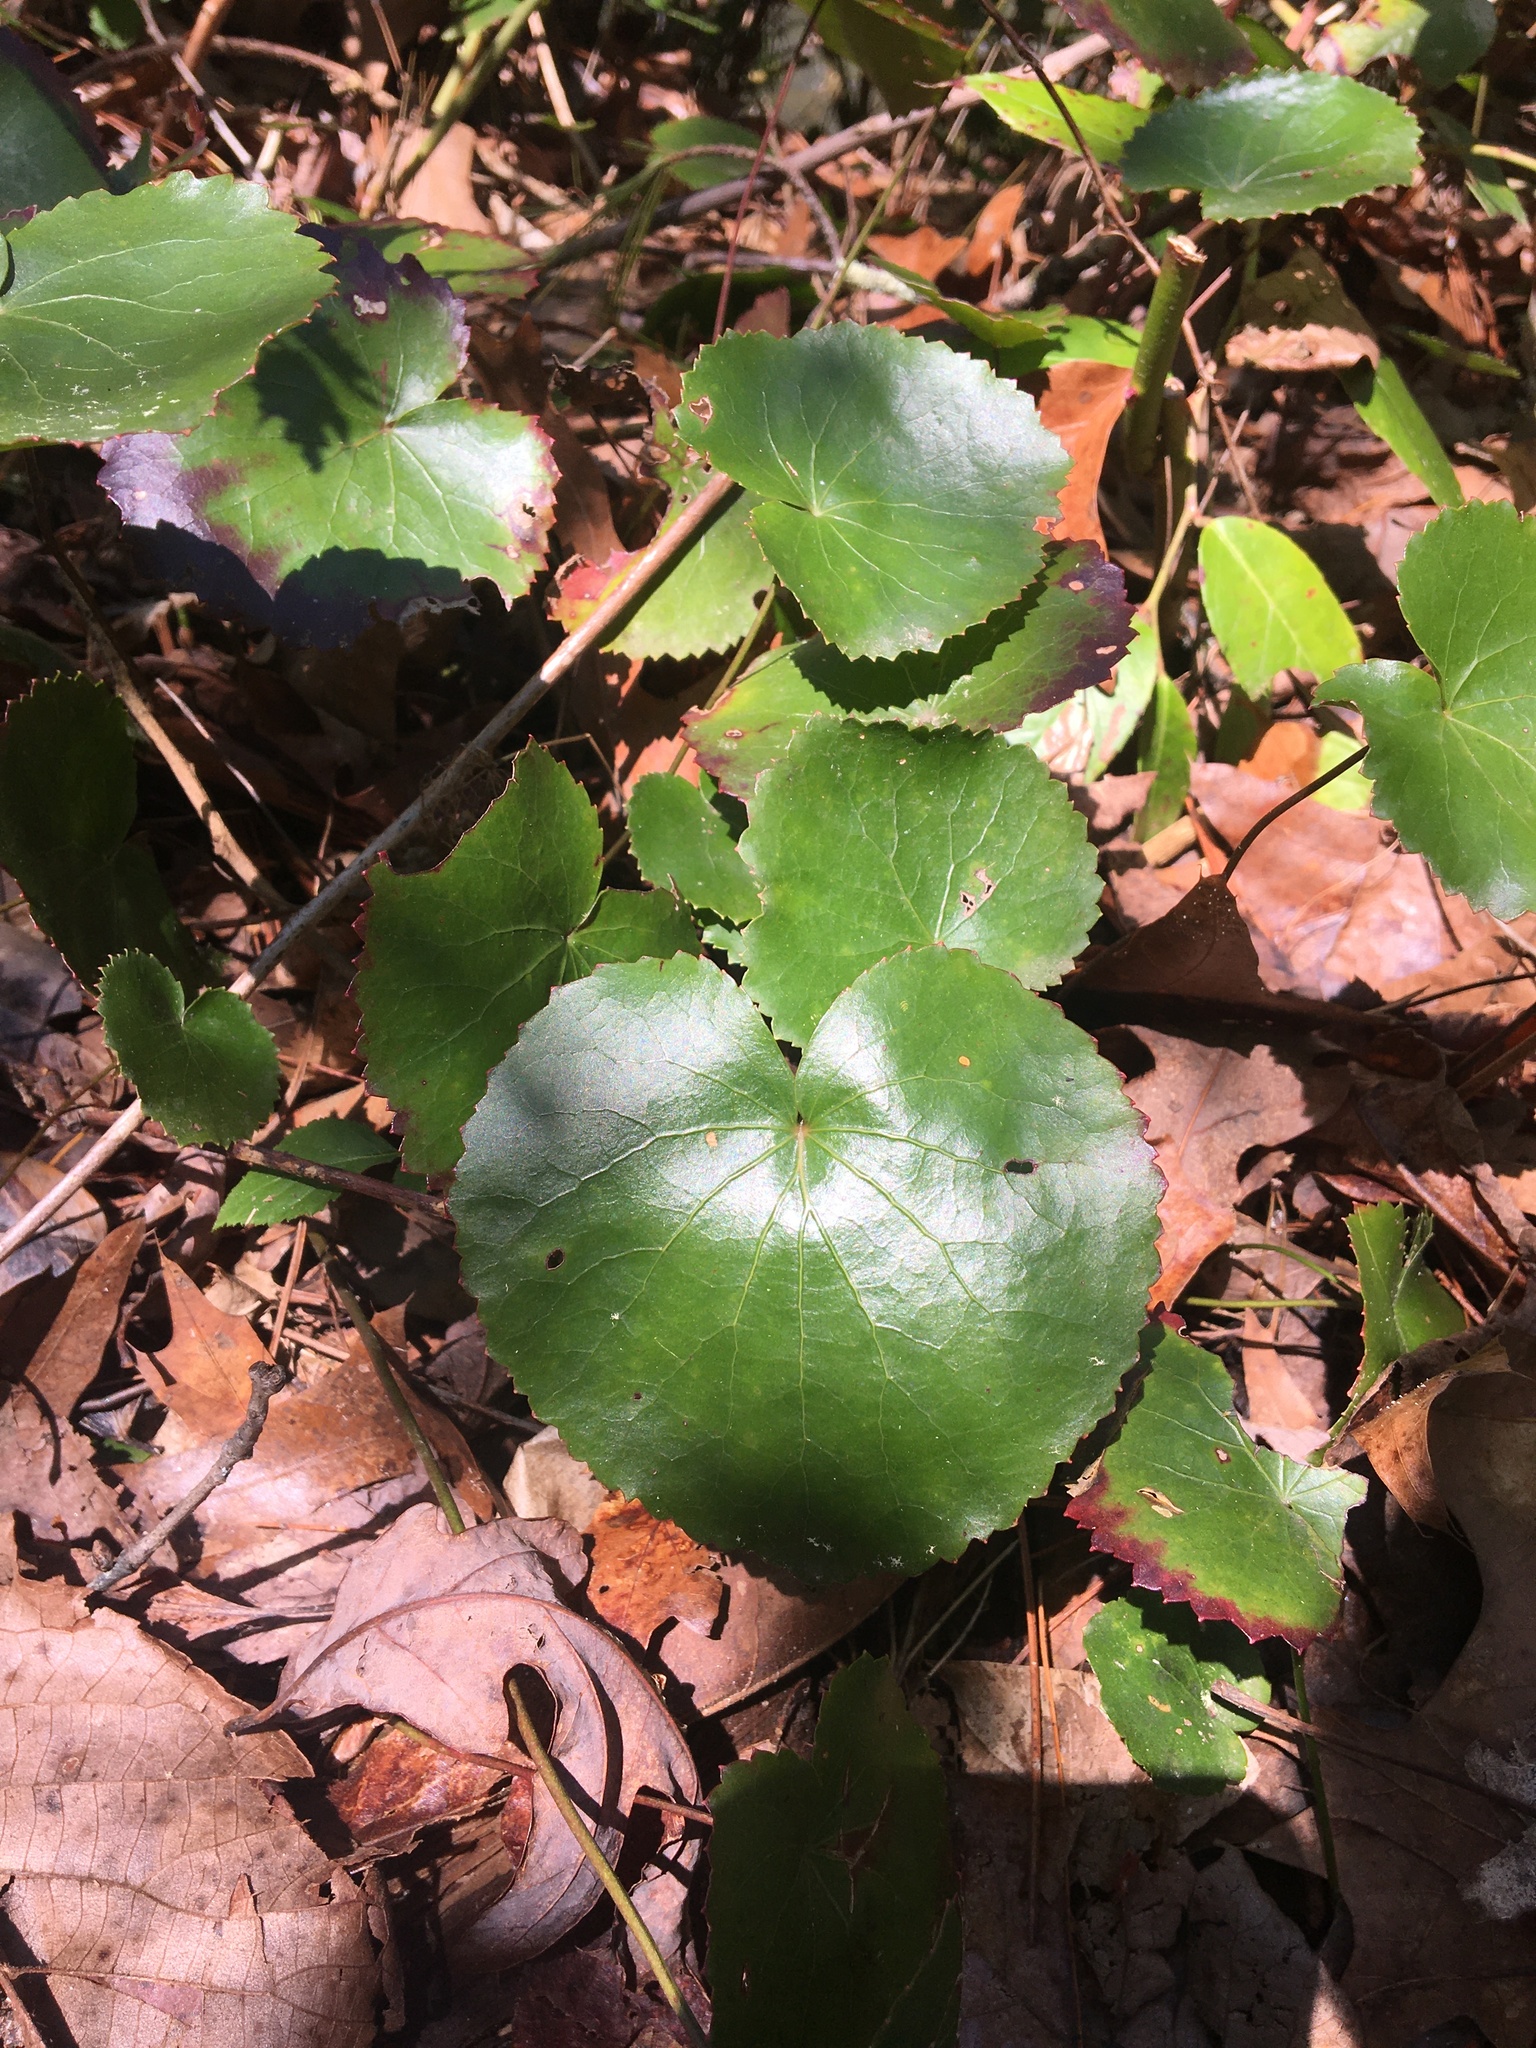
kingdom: Plantae
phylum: Tracheophyta
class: Magnoliopsida
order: Ericales
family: Diapensiaceae
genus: Galax
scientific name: Galax urceolata
